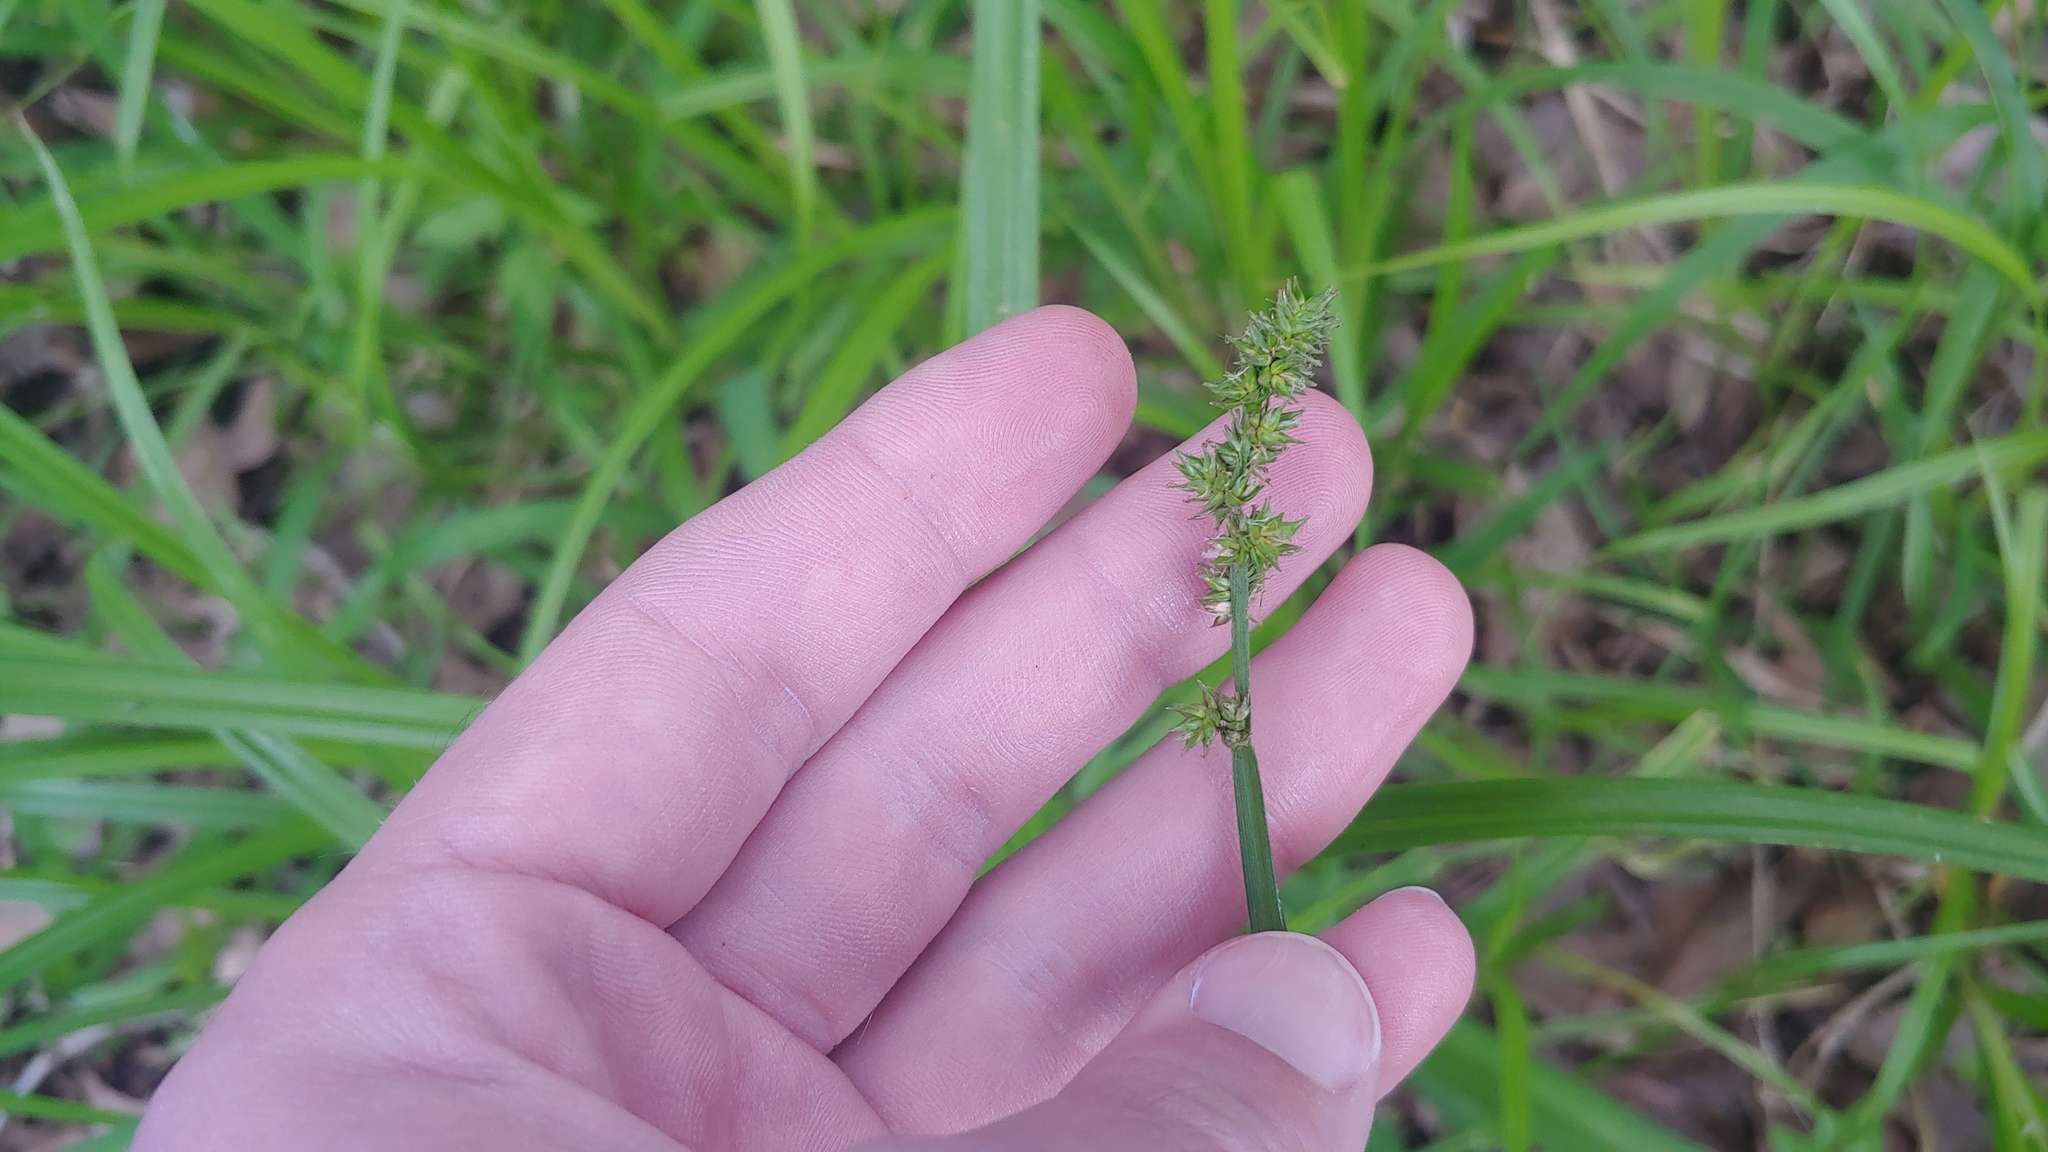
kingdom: Plantae
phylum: Tracheophyta
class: Liliopsida
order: Poales
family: Cyperaceae
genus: Carex
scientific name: Carex conjuncta
